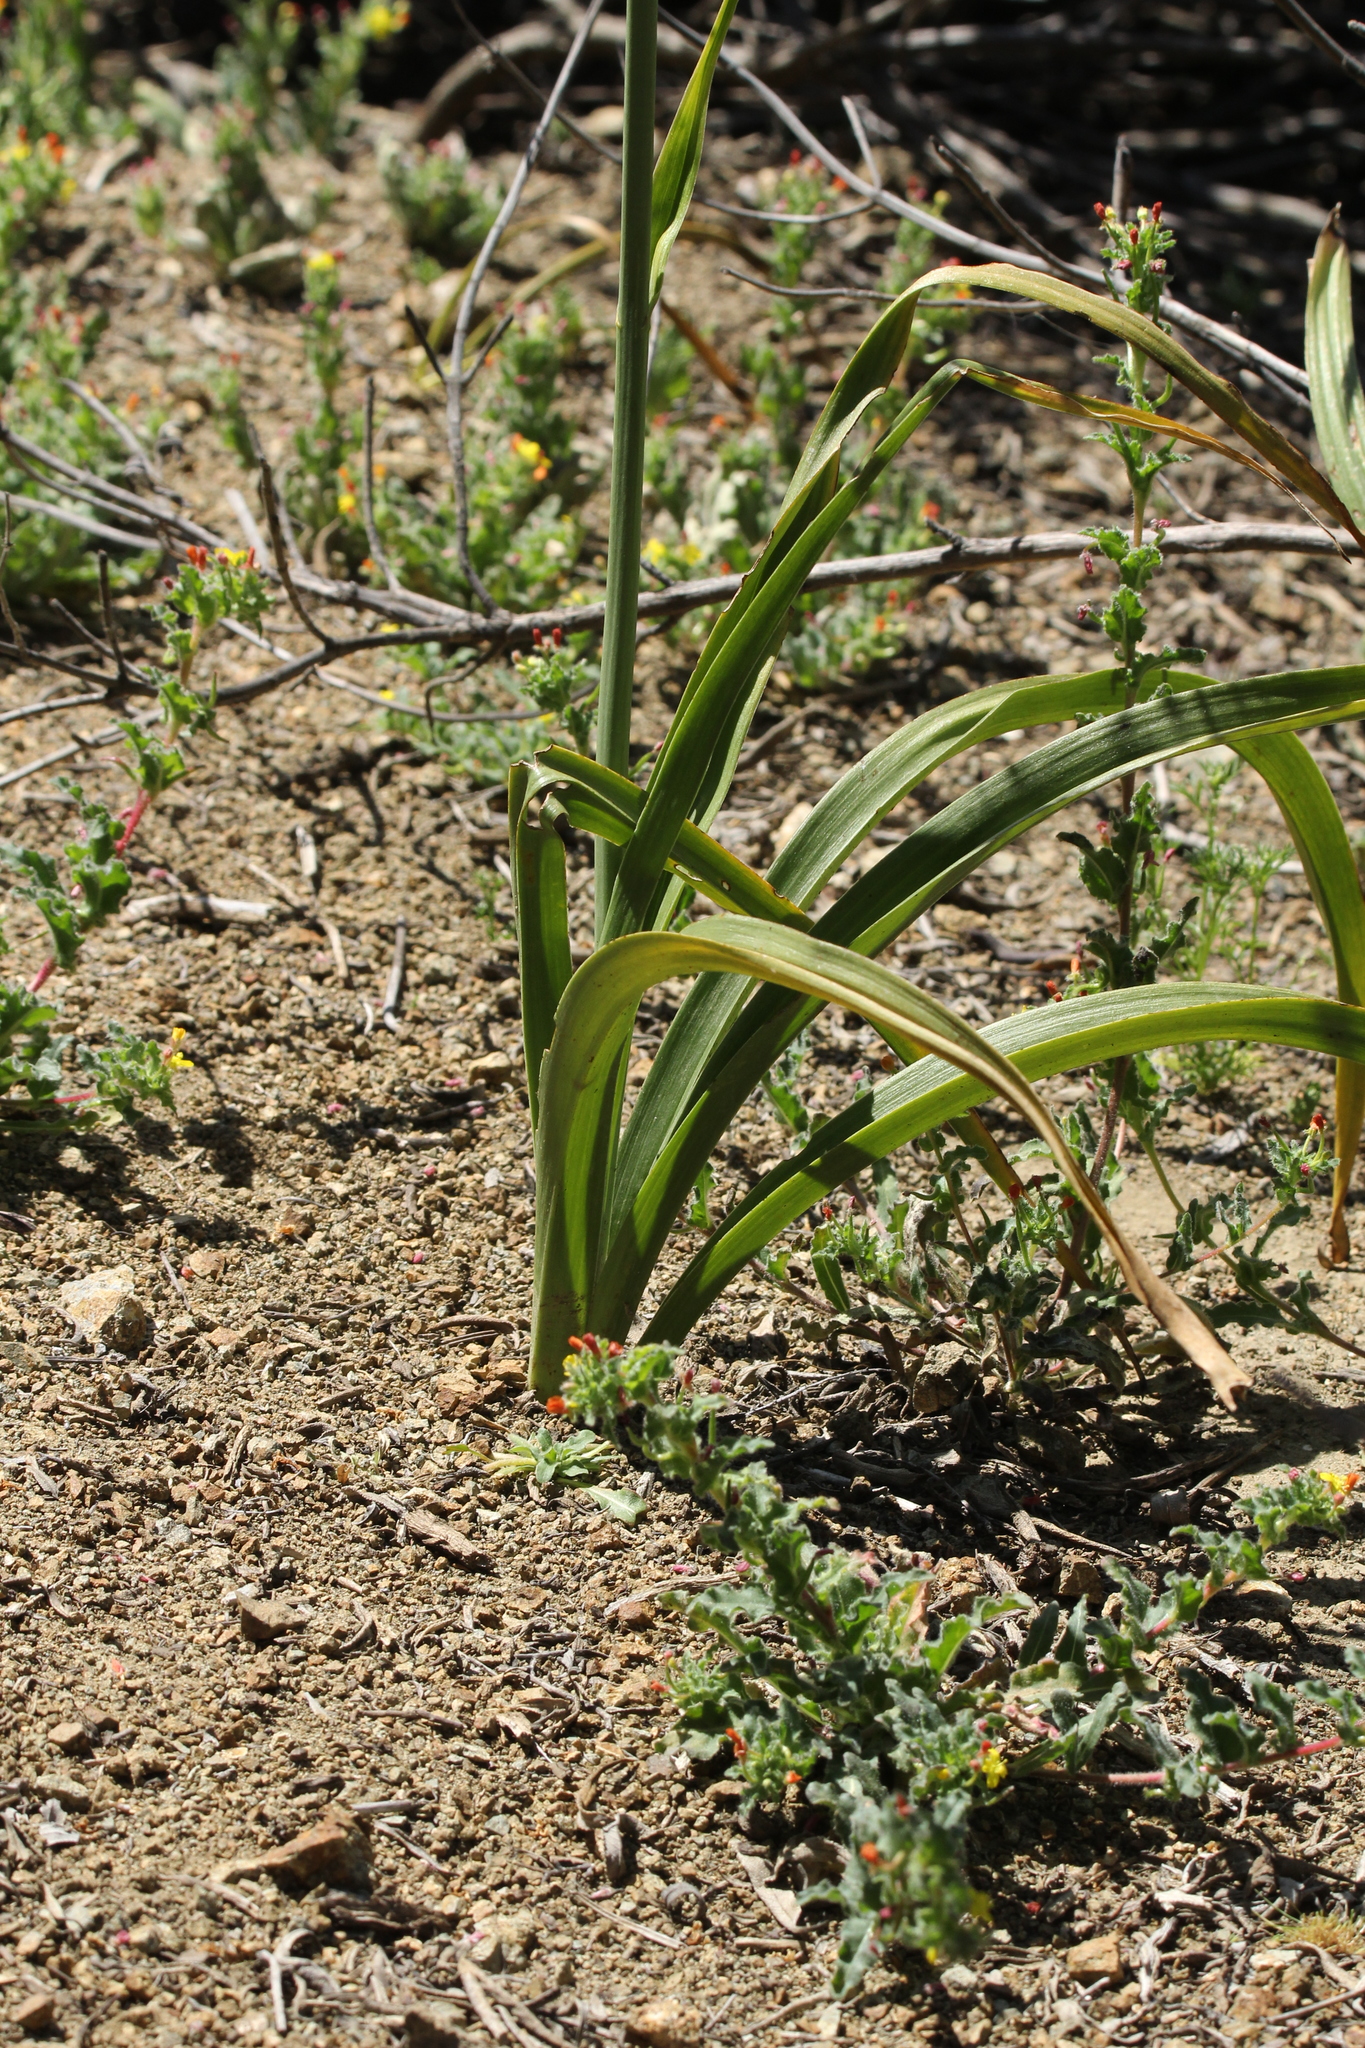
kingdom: Plantae
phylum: Tracheophyta
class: Liliopsida
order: Liliales
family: Melanthiaceae
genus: Toxicoscordion
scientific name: Toxicoscordion fremontii
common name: Fremont's death camas
